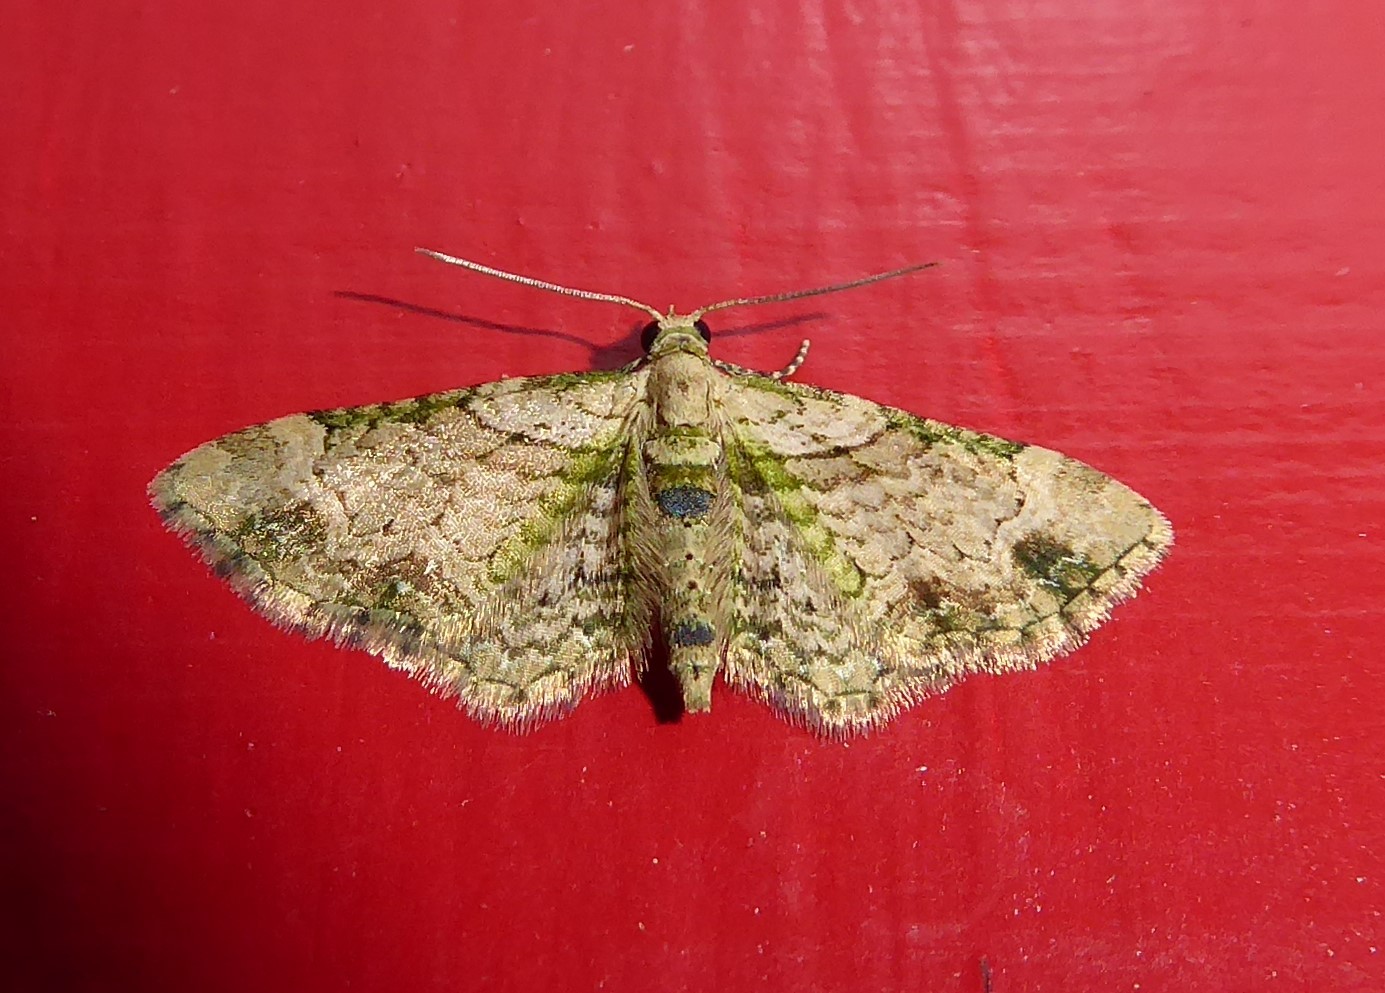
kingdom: Animalia
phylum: Arthropoda
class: Insecta
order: Lepidoptera
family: Geometridae
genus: Chloroclystis
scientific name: Chloroclystis
